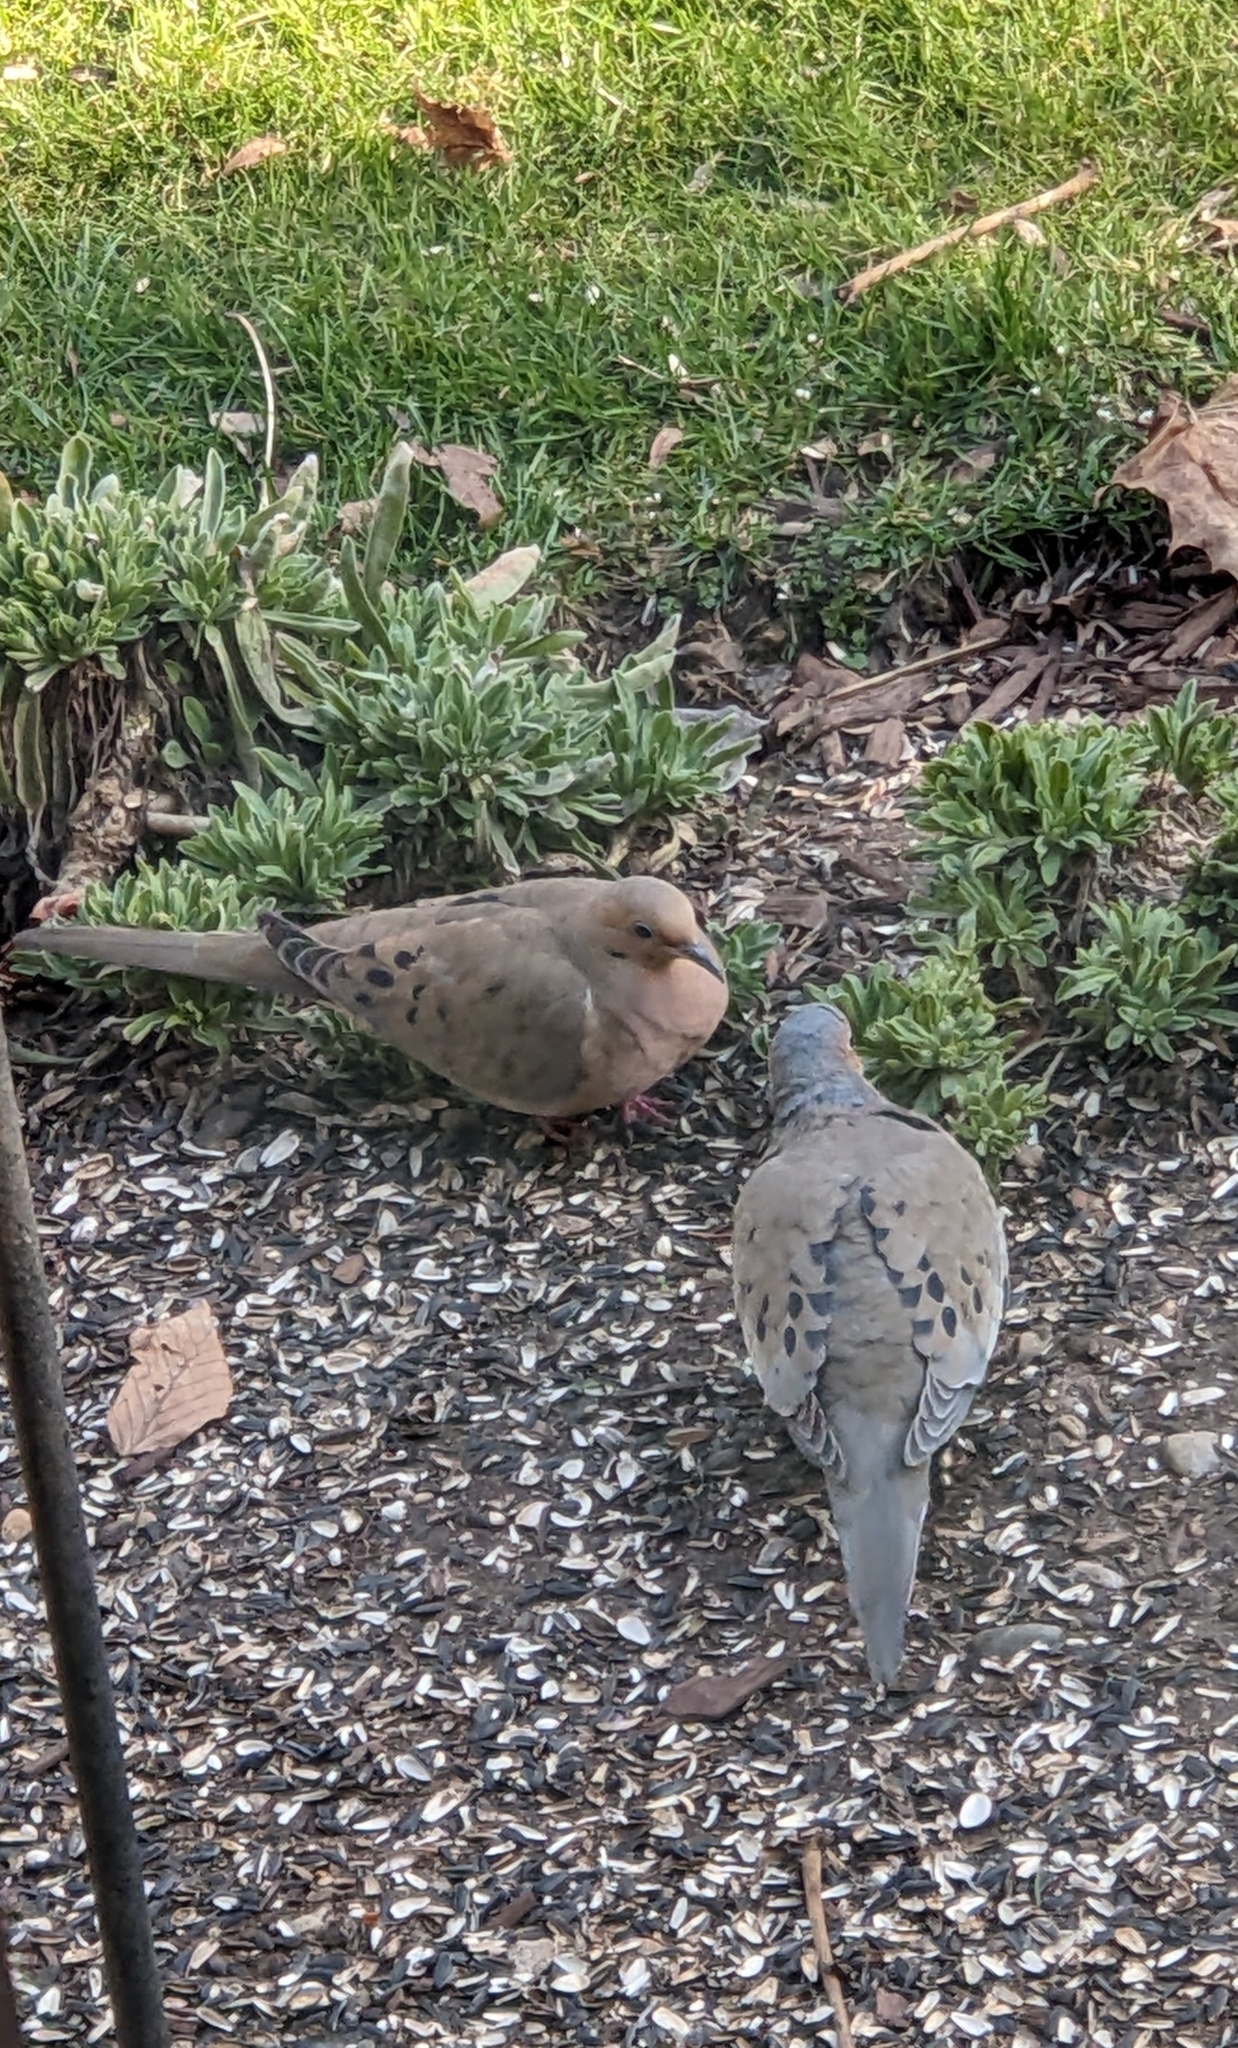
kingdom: Animalia
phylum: Chordata
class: Aves
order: Columbiformes
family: Columbidae
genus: Zenaida
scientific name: Zenaida macroura
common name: Mourning dove
